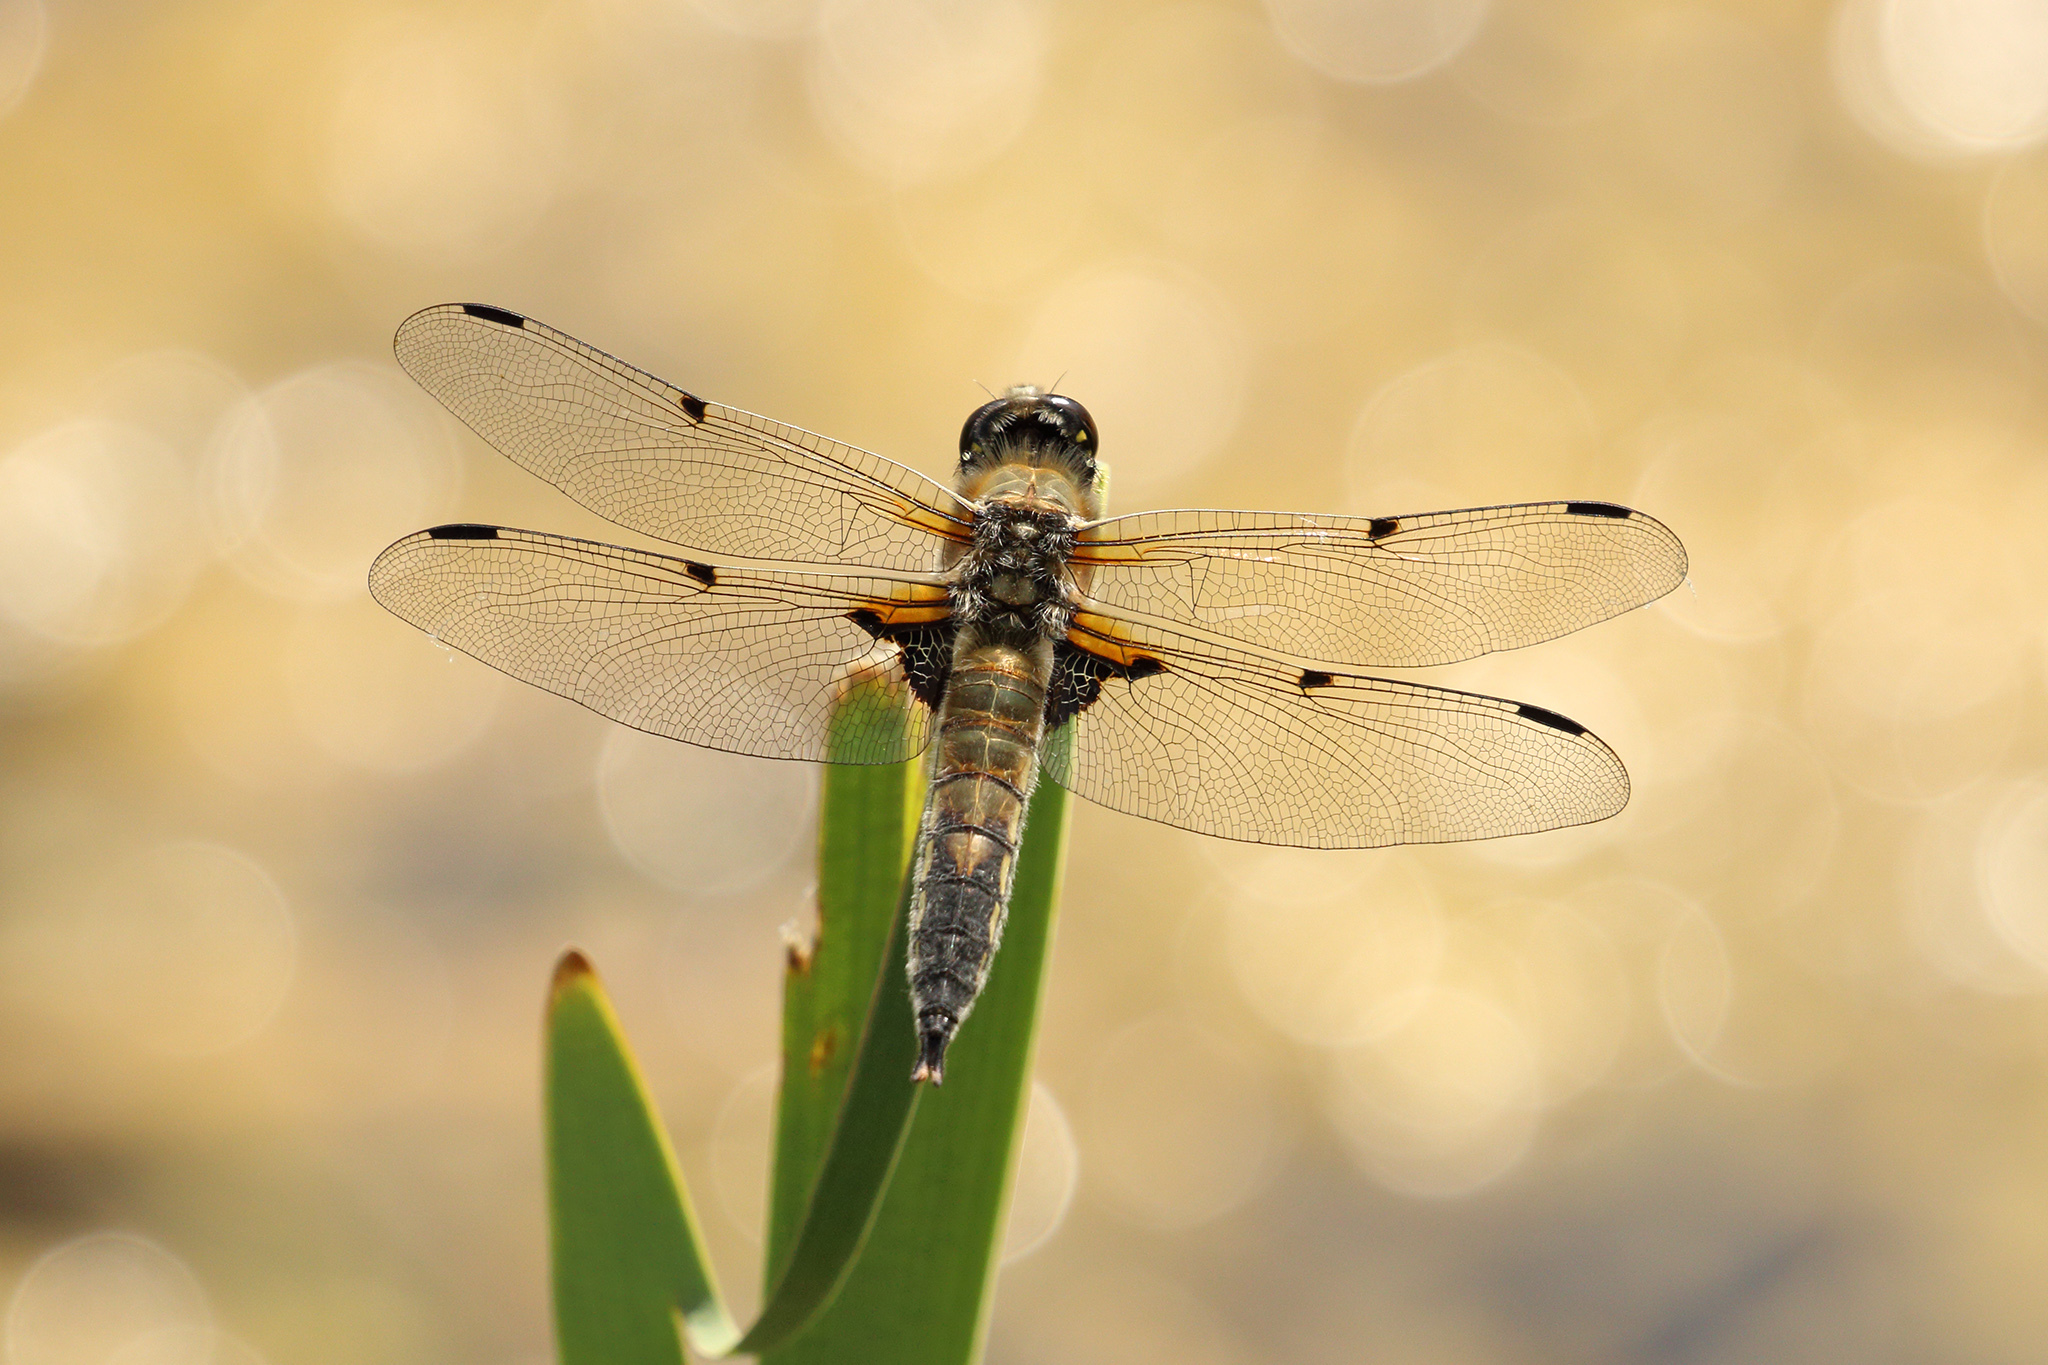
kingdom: Animalia
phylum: Arthropoda
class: Insecta
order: Odonata
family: Libellulidae
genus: Libellula
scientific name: Libellula quadrimaculata
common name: Four-spotted chaser
